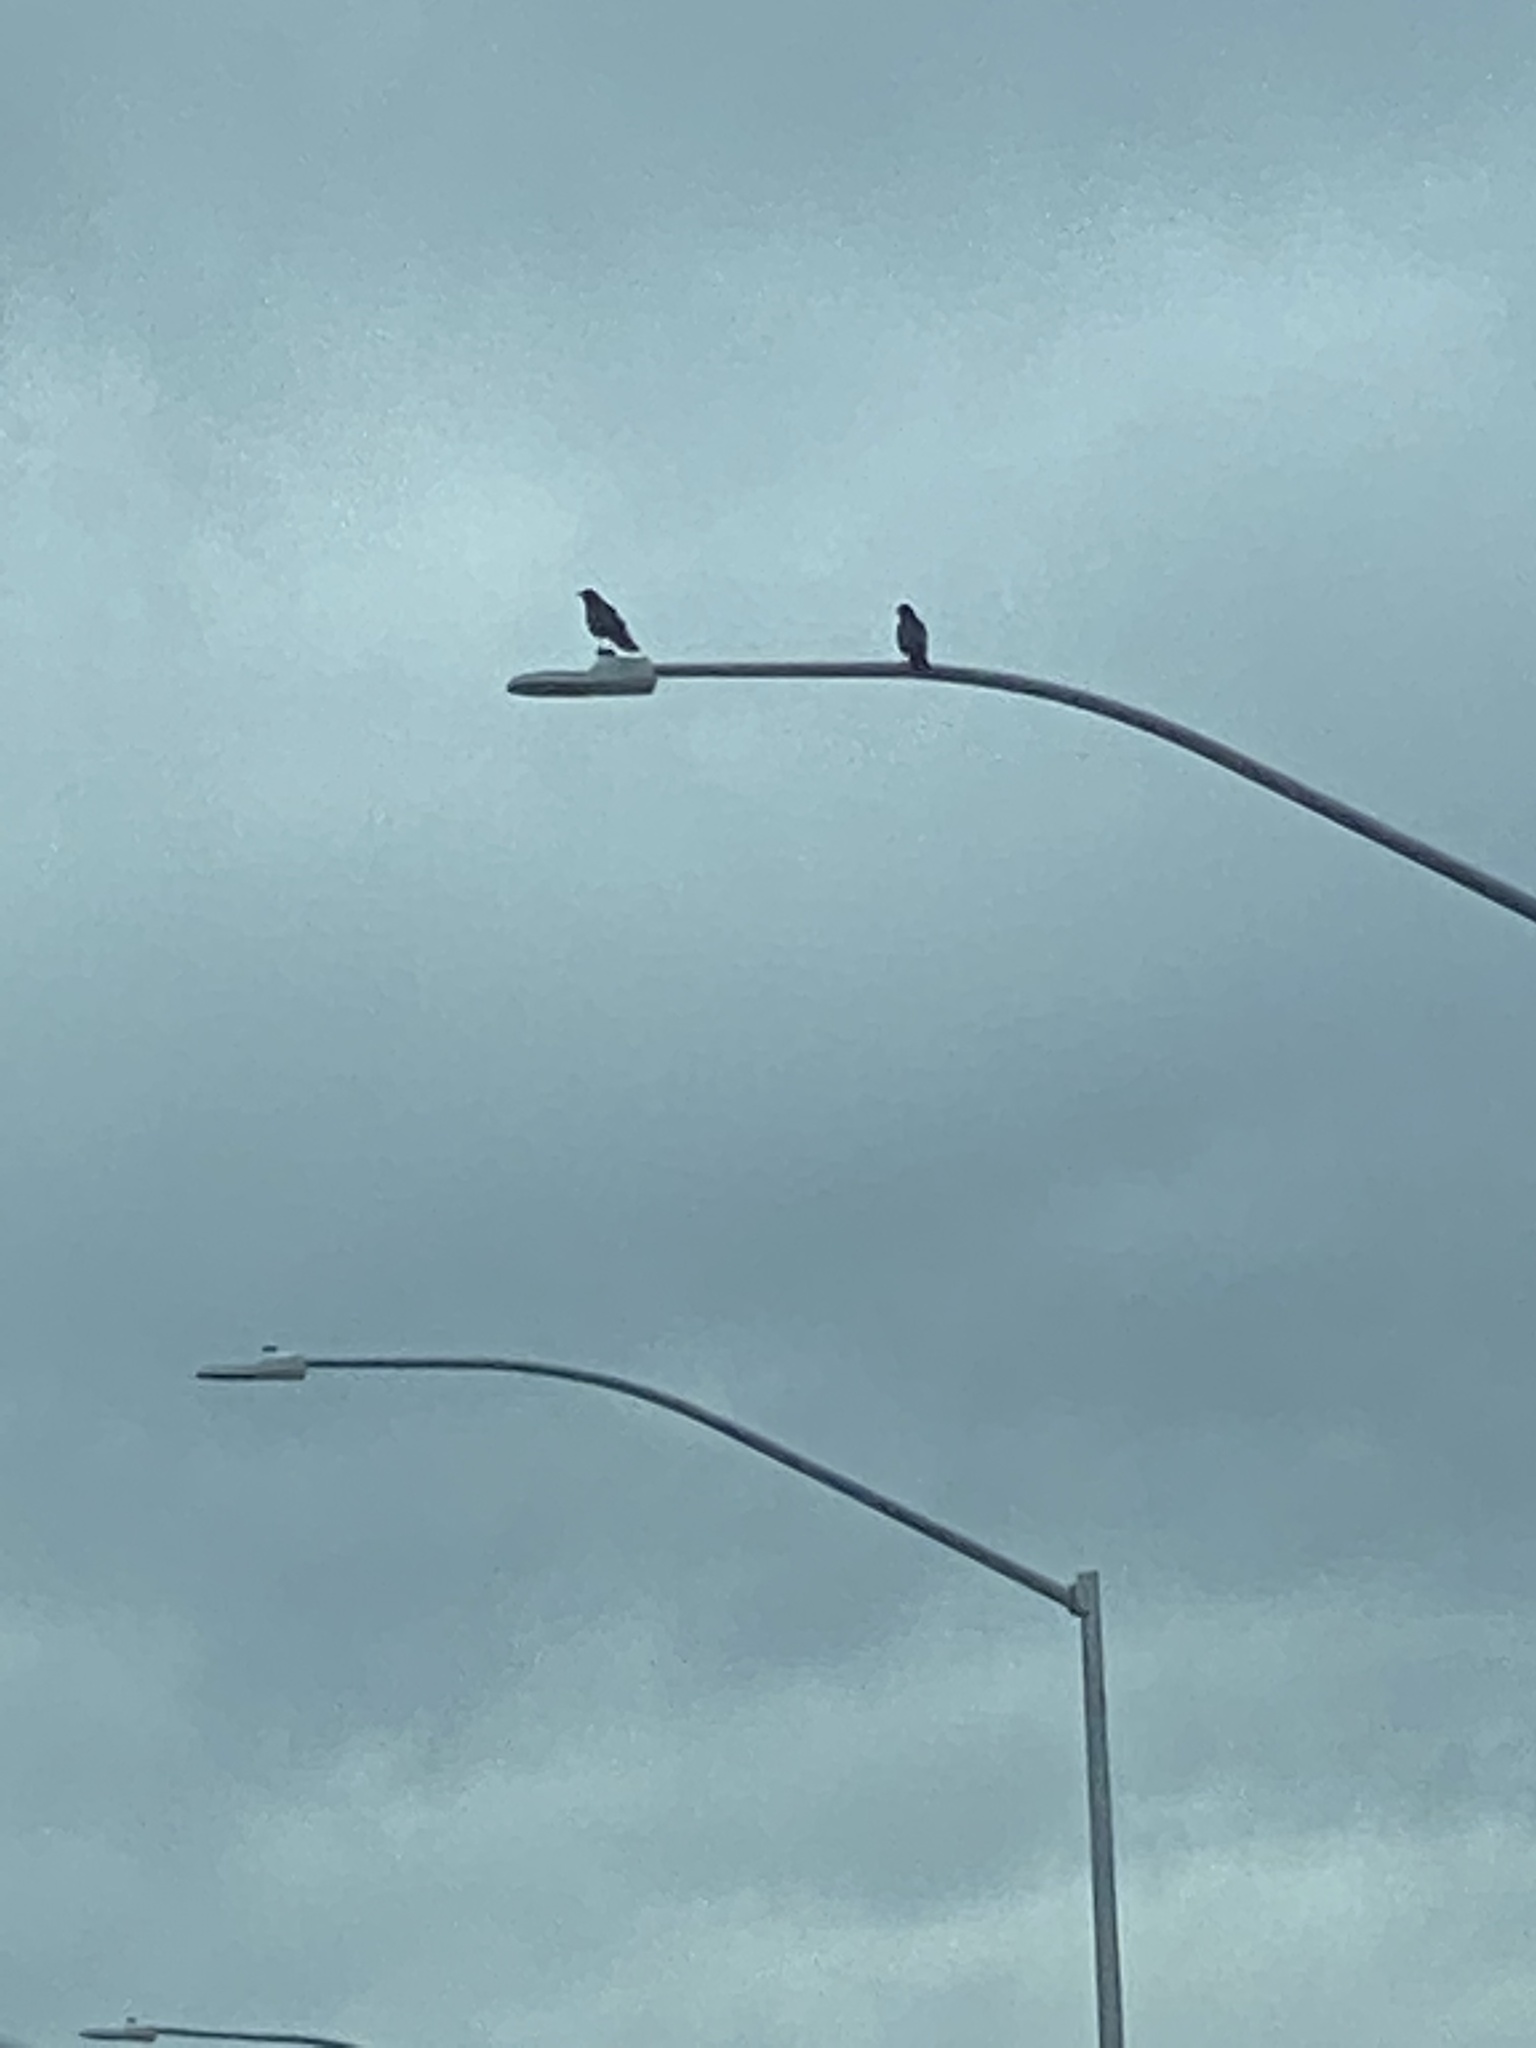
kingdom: Animalia
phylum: Chordata
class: Aves
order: Passeriformes
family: Corvidae
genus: Corvus
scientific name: Corvus brachyrhynchos
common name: American crow
